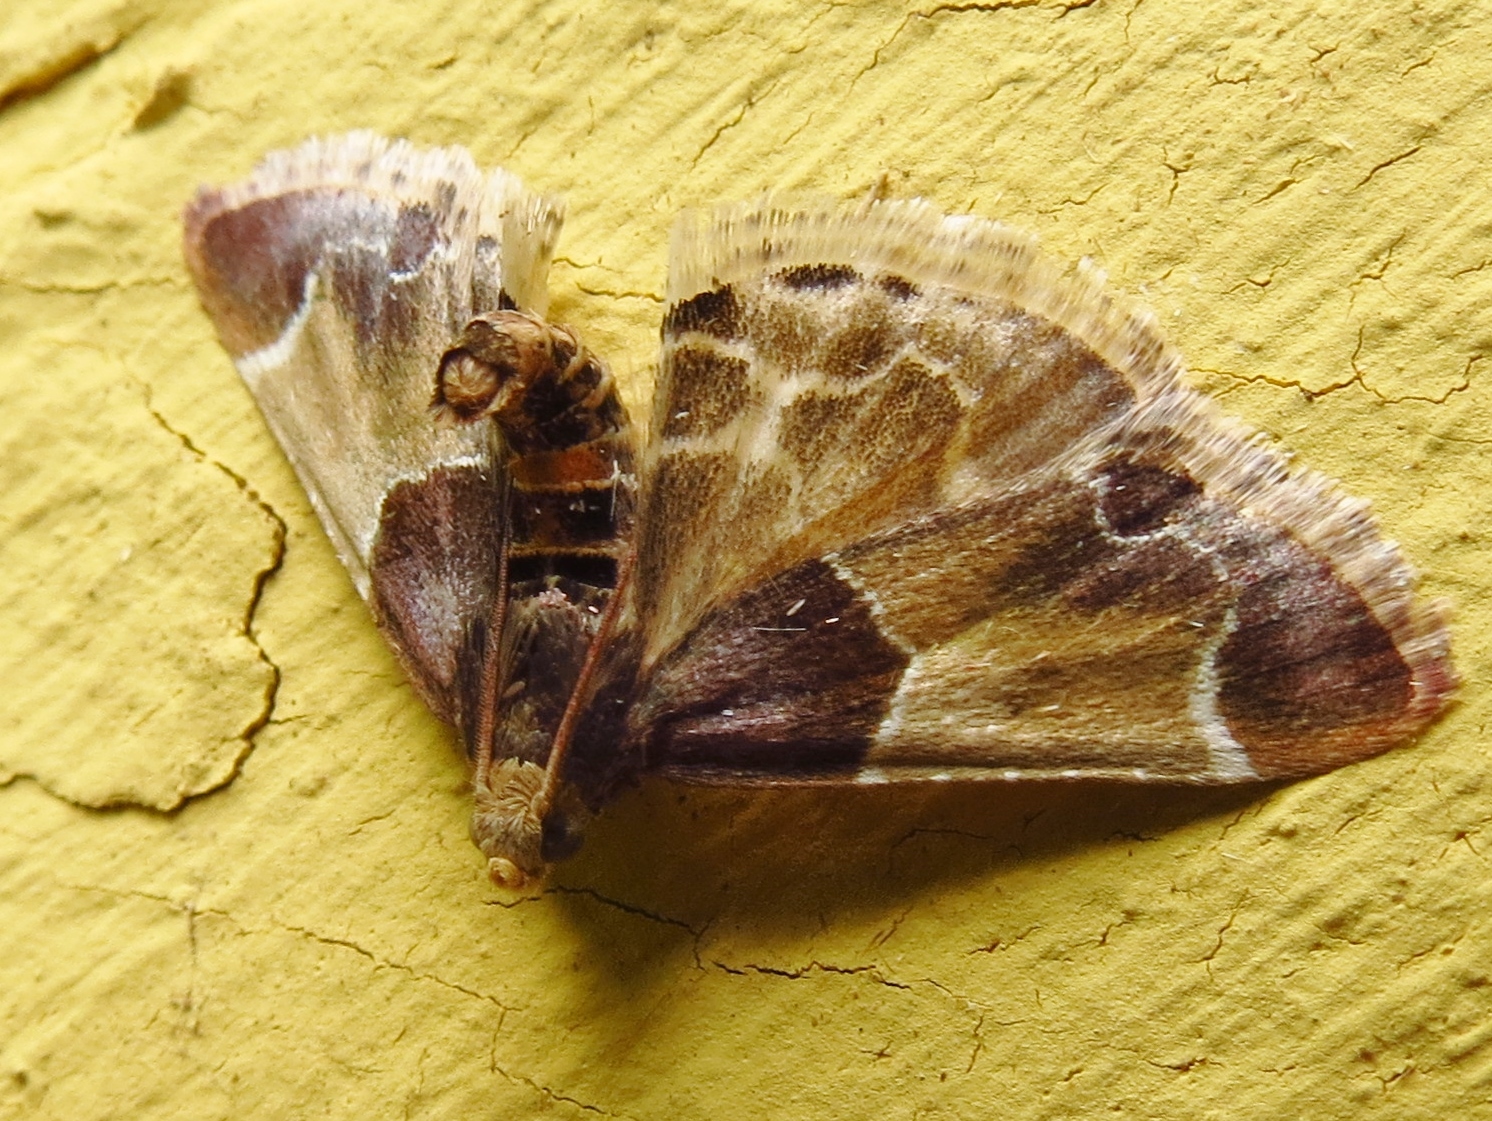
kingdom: Animalia
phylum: Arthropoda
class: Insecta
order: Lepidoptera
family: Pyralidae
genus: Pyralis
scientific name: Pyralis farinalis
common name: Meal moth
